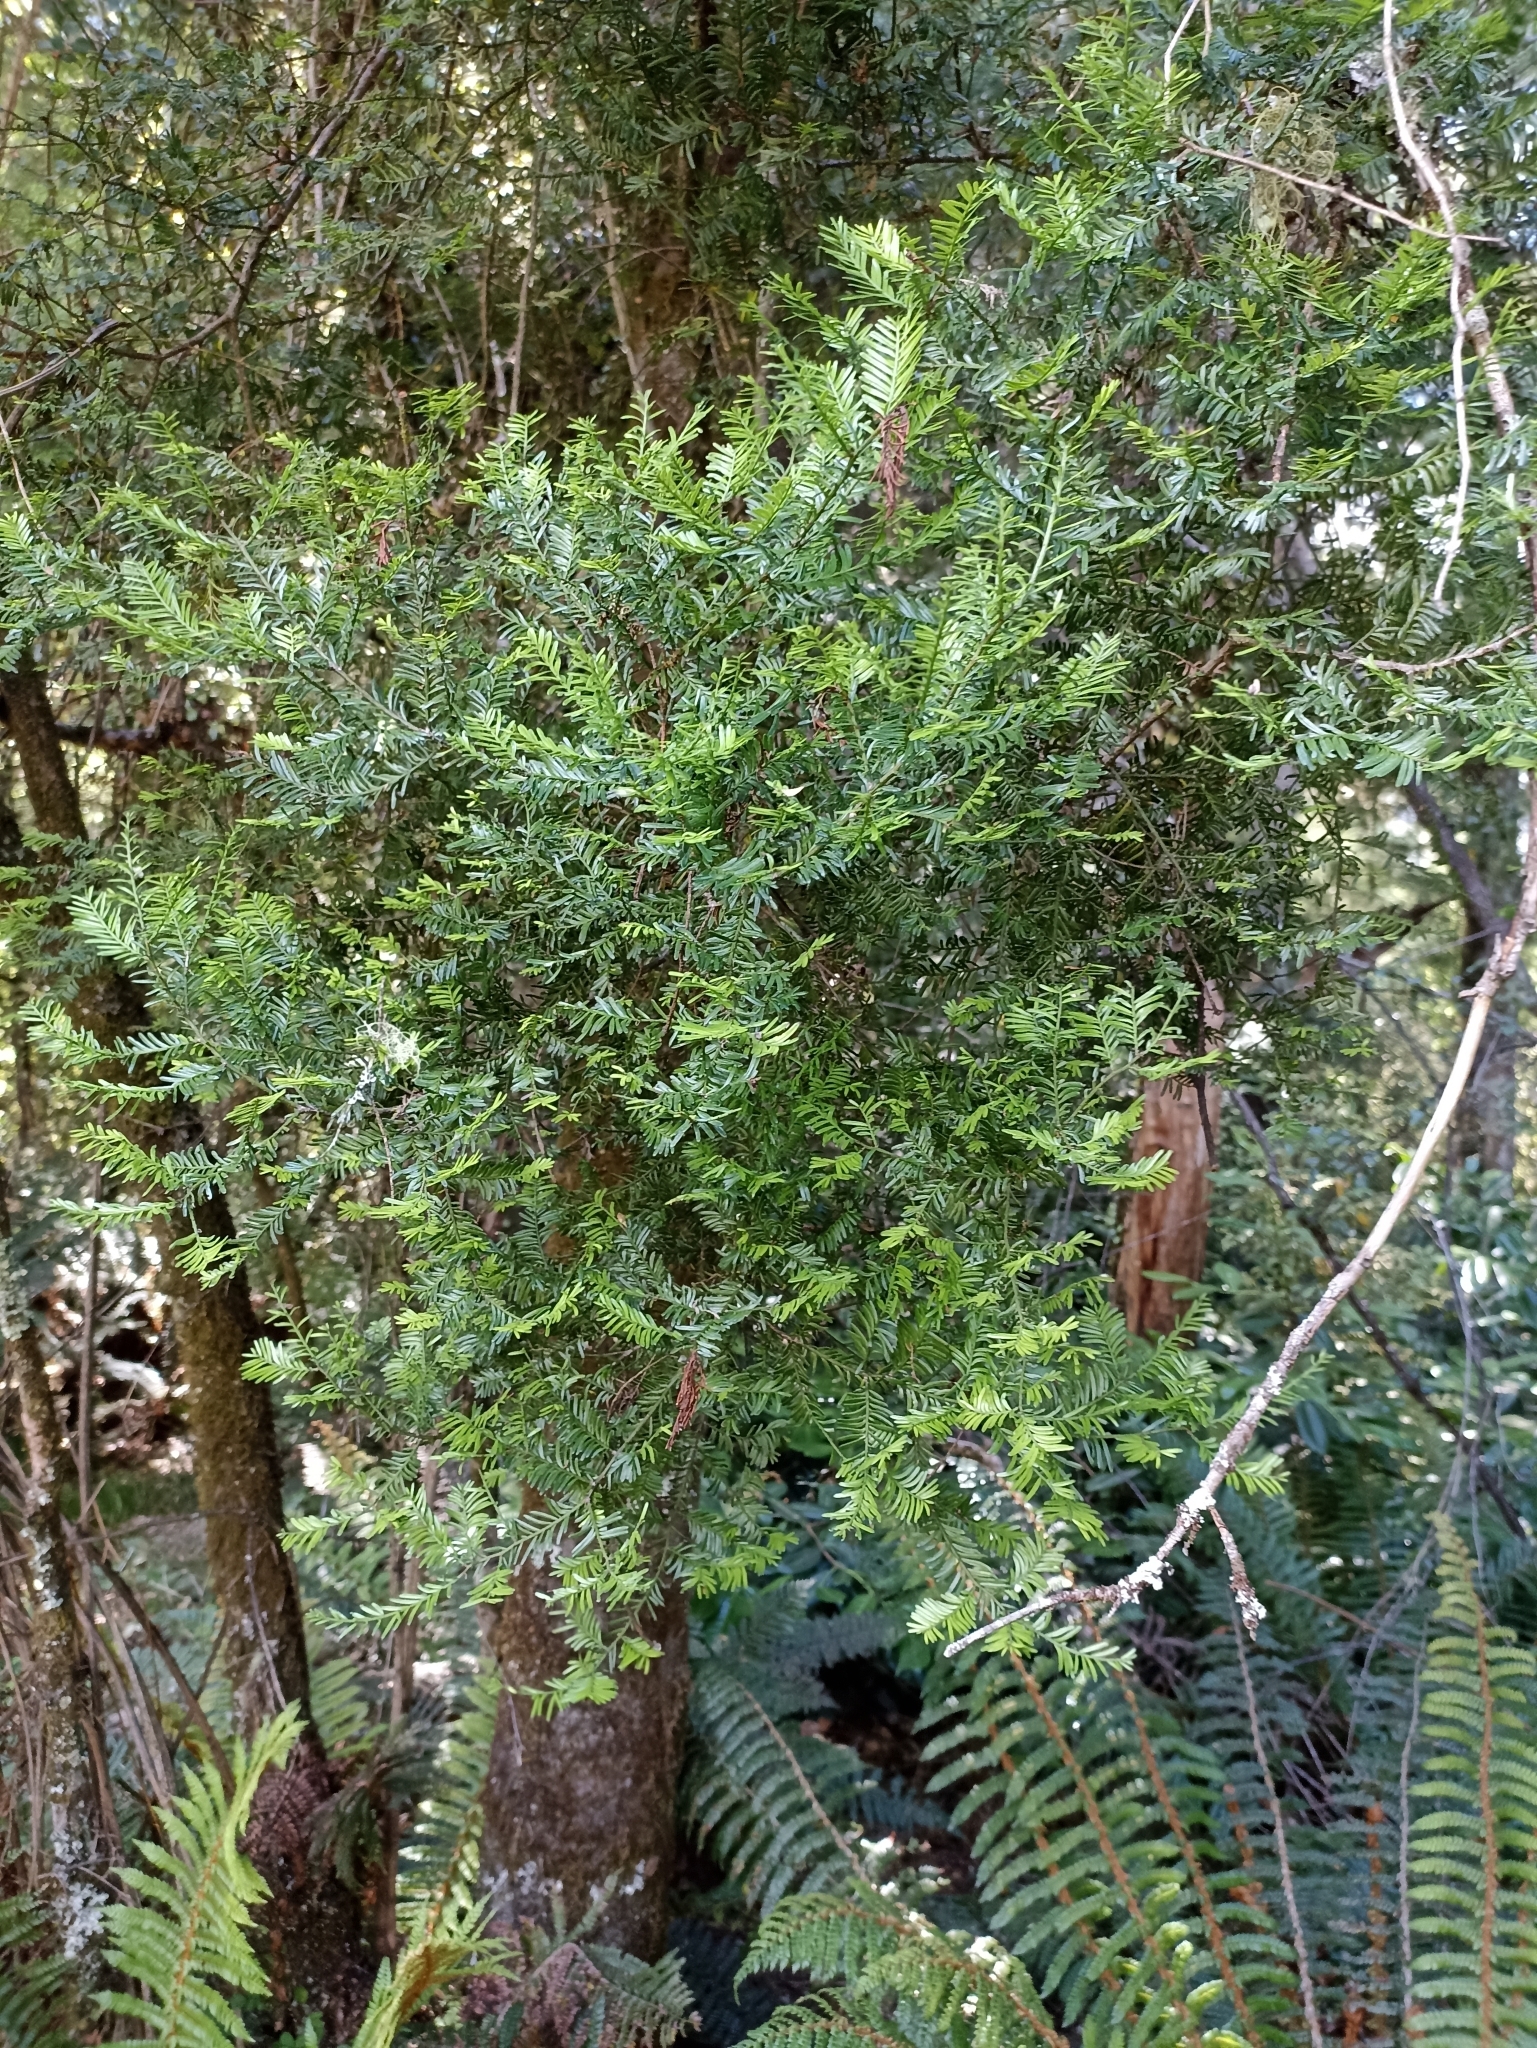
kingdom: Plantae
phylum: Tracheophyta
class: Pinopsida
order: Pinales
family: Podocarpaceae
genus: Prumnopitys
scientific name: Prumnopitys taxifolia
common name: Matai
